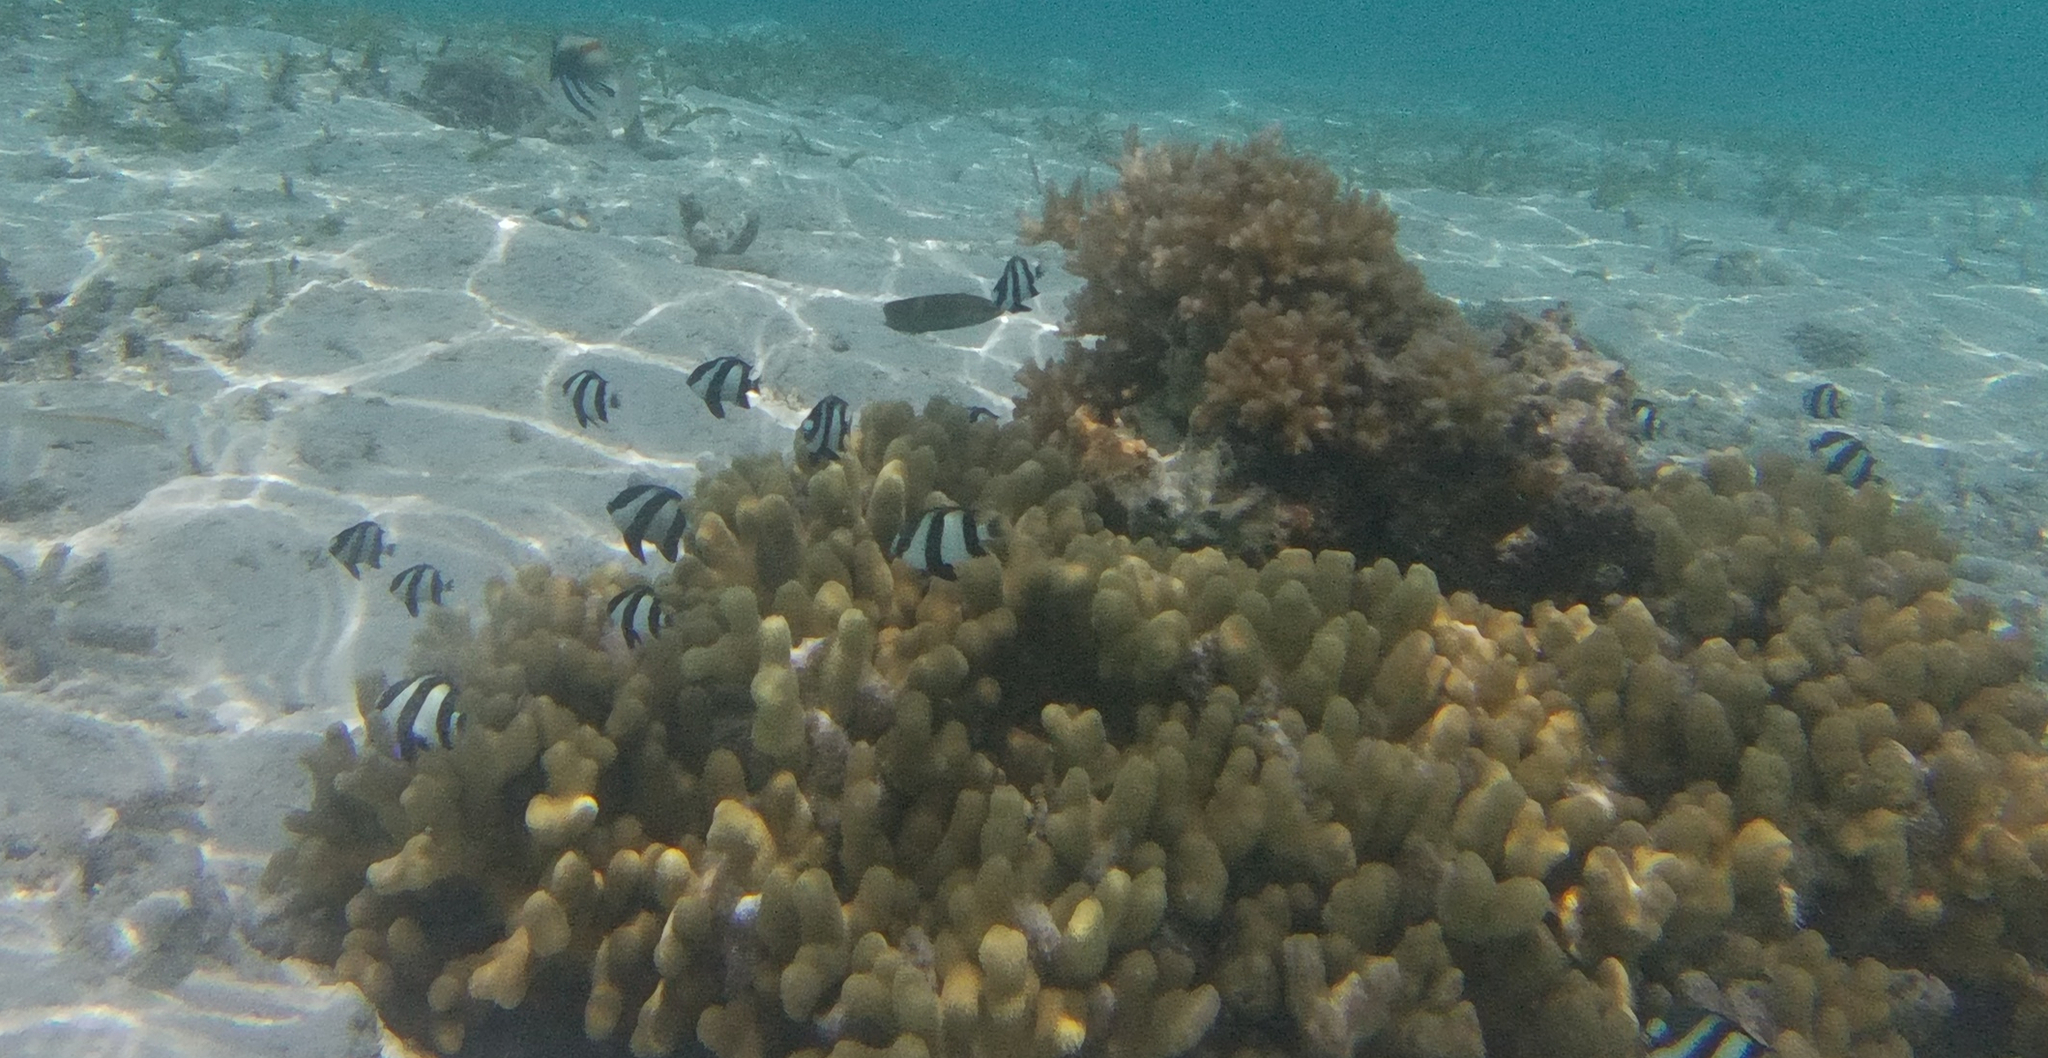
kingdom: Animalia
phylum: Chordata
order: Perciformes
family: Pomacentridae
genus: Dascyllus
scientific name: Dascyllus abudafur
